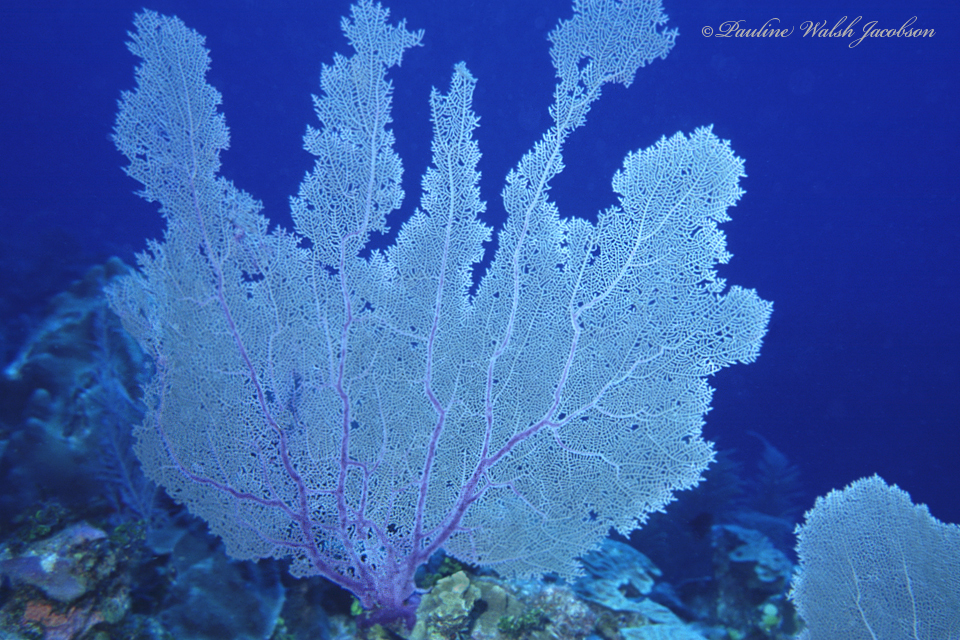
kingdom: Animalia
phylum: Cnidaria
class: Anthozoa
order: Malacalcyonacea
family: Gorgoniidae
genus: Gorgonia
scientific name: Gorgonia ventalina
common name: Common sea fan
